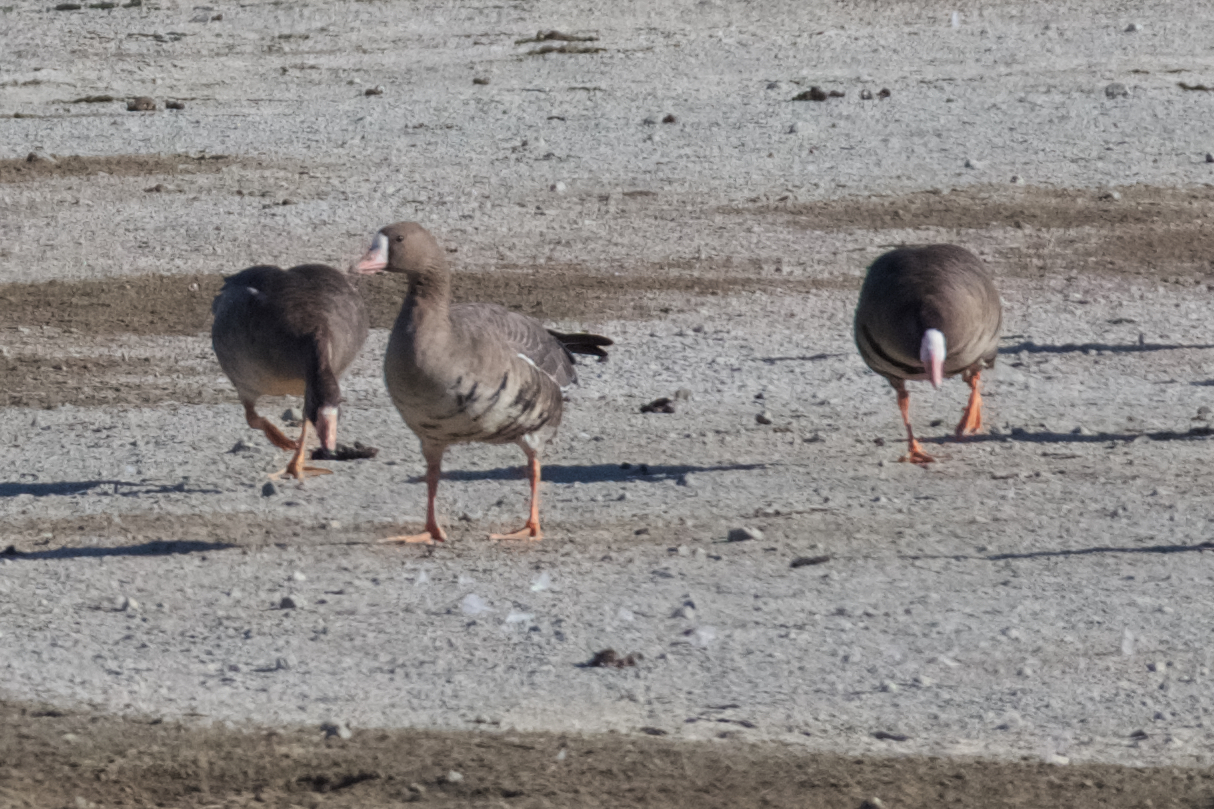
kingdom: Animalia
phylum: Chordata
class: Aves
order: Anseriformes
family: Anatidae
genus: Anser
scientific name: Anser albifrons
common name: Greater white-fronted goose
